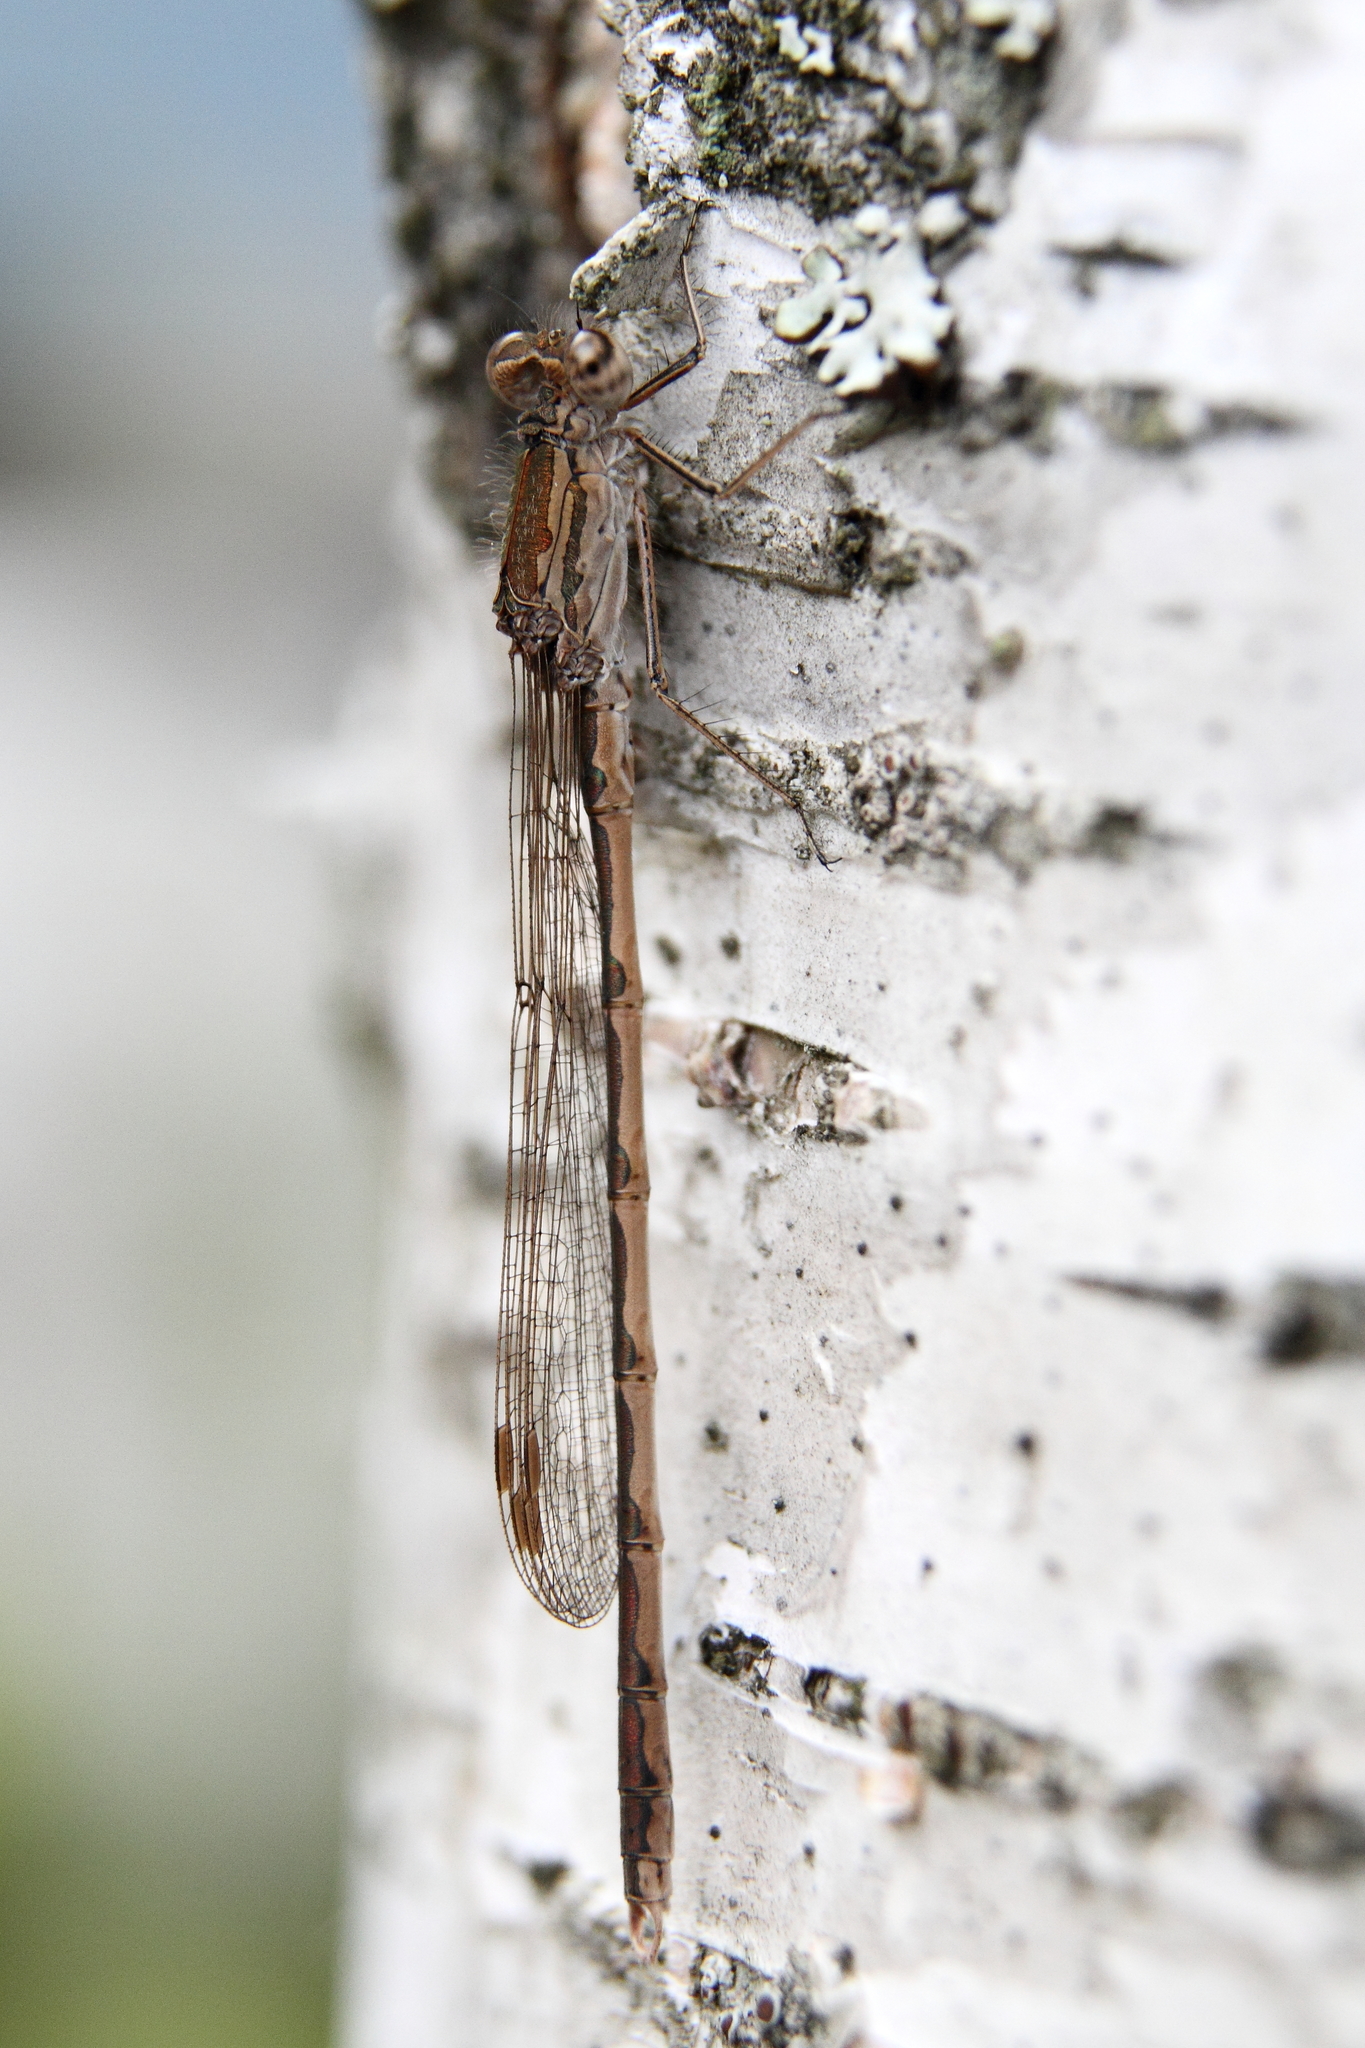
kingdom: Animalia
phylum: Arthropoda
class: Insecta
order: Odonata
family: Lestidae
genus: Sympecma
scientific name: Sympecma paedisca
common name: Siberian winter damsel
